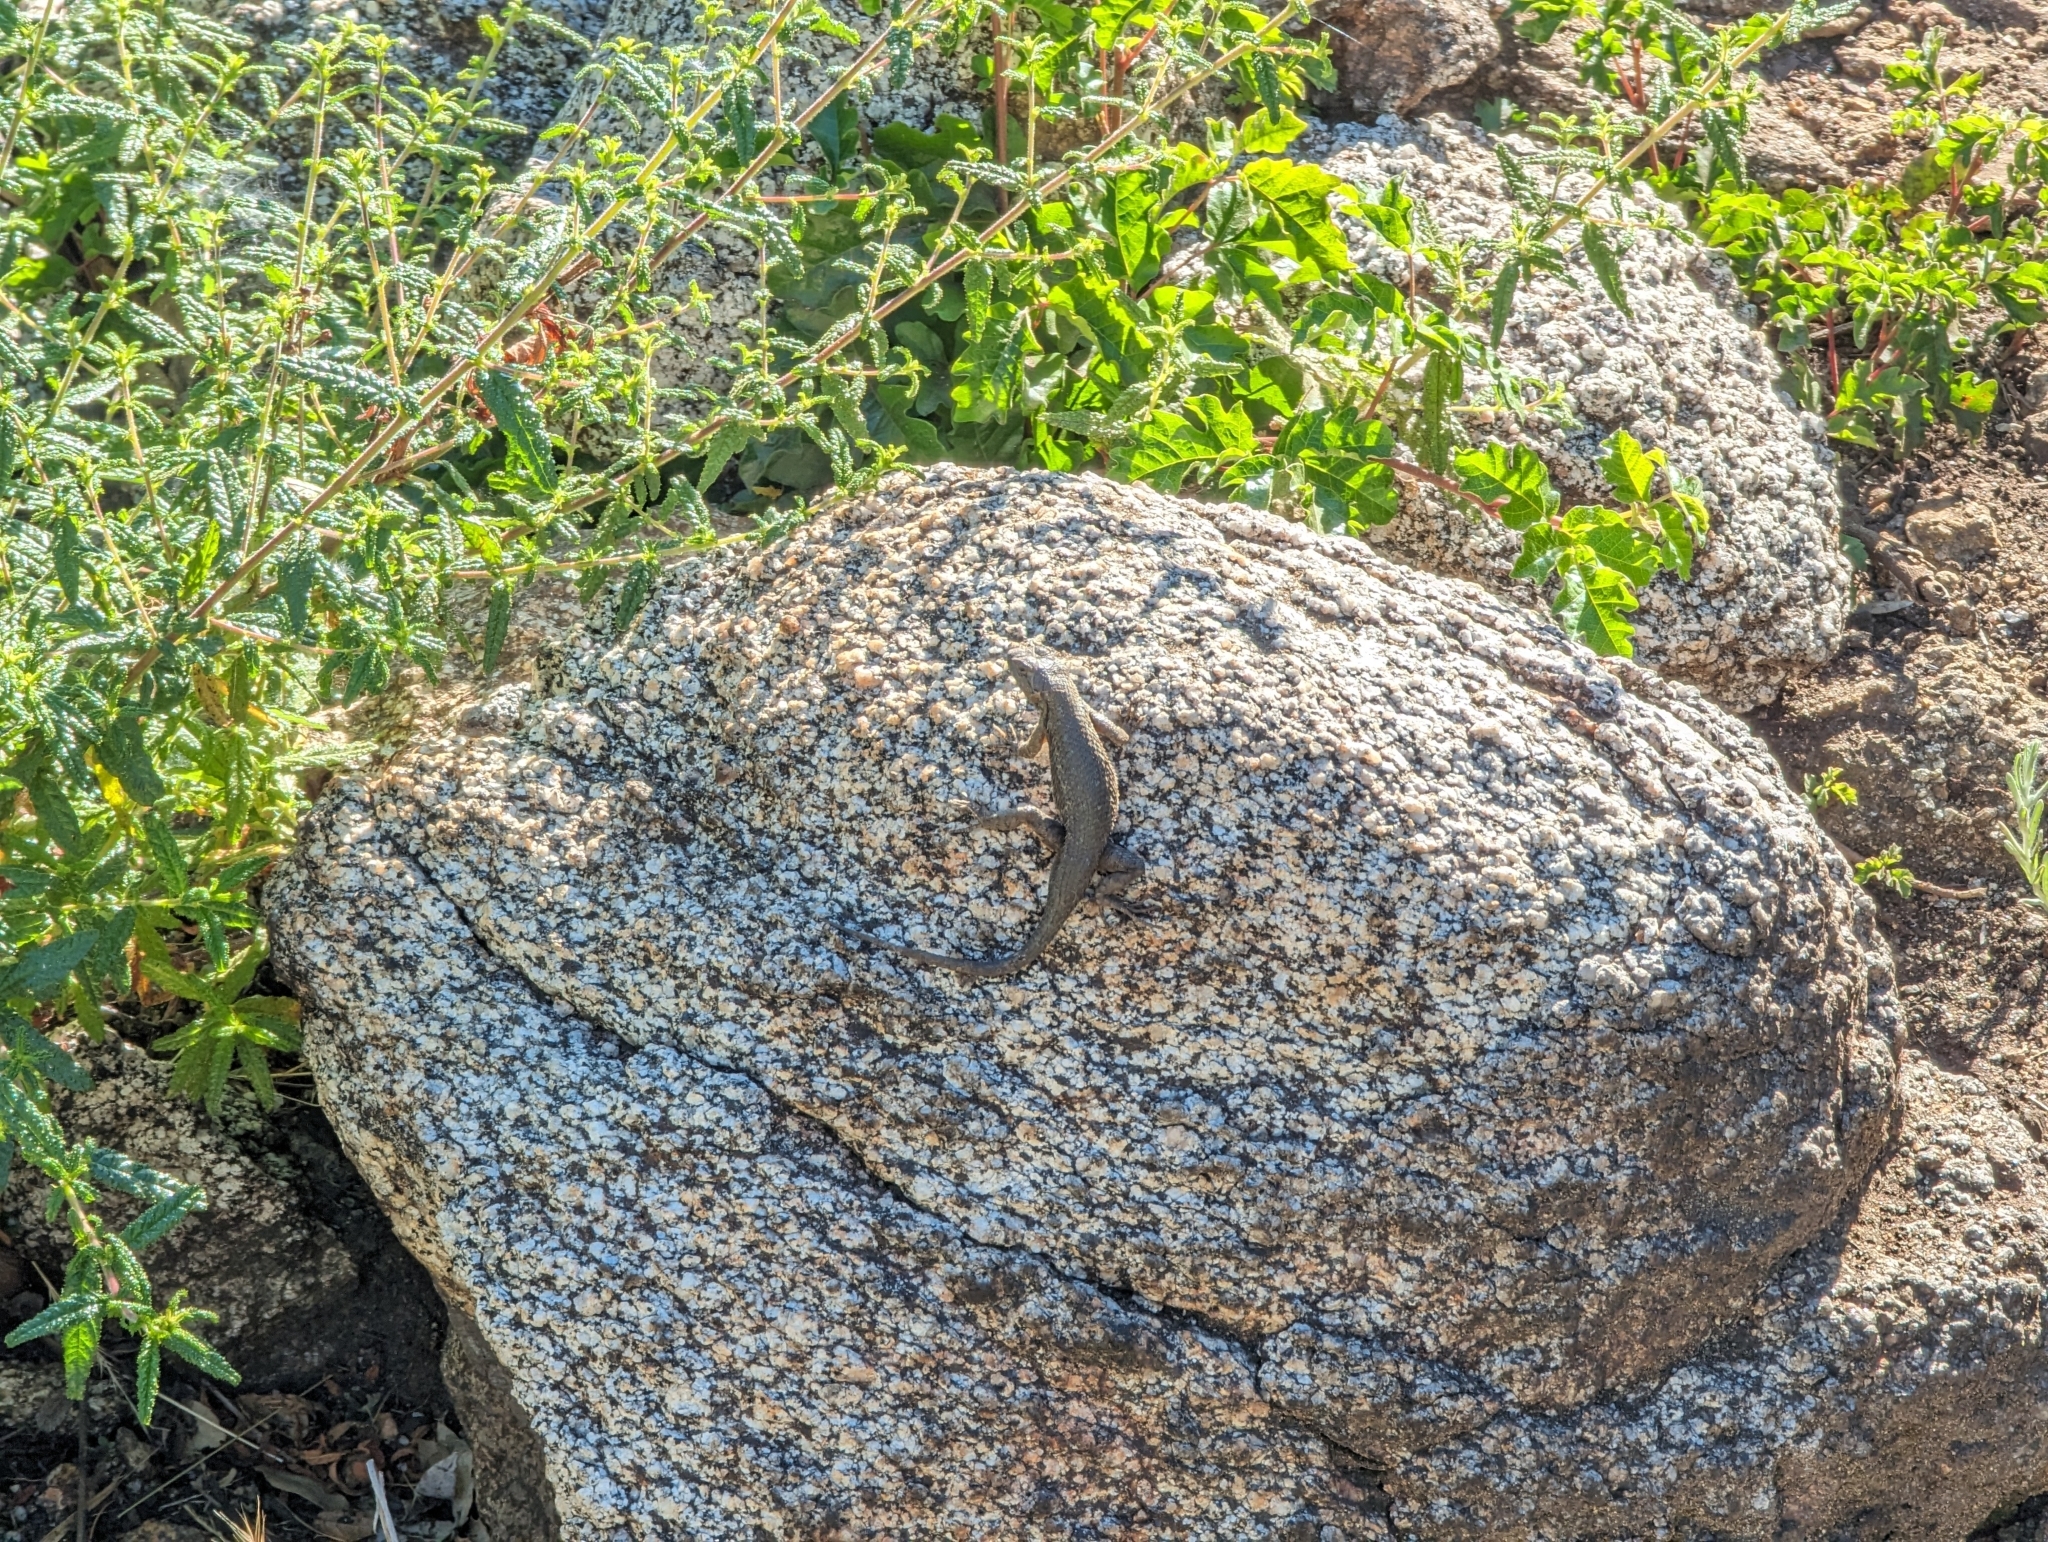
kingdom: Animalia
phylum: Chordata
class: Squamata
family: Phrynosomatidae
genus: Sceloporus
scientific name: Sceloporus occidentalis
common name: Western fence lizard
